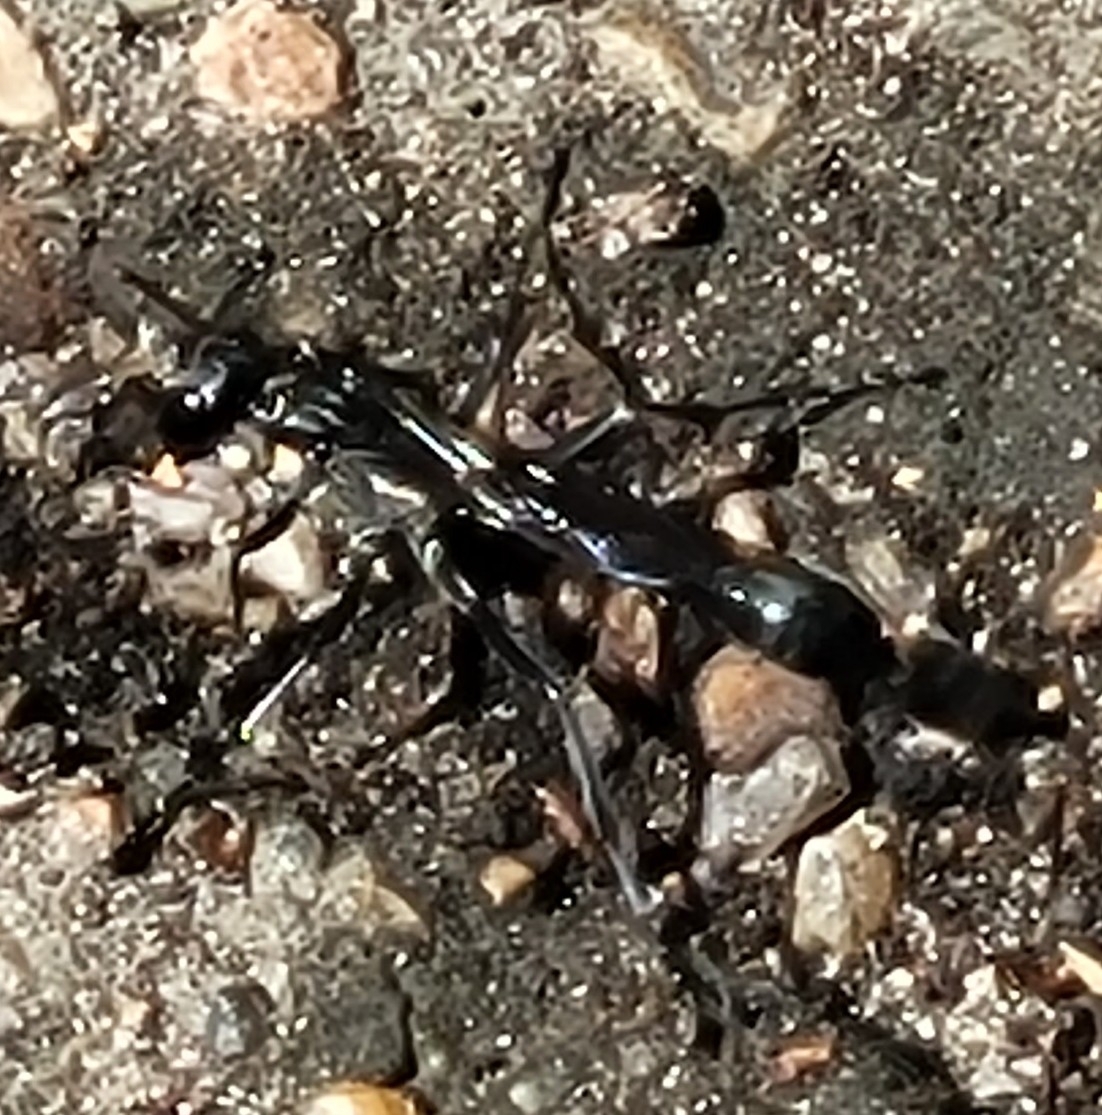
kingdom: Animalia
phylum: Arthropoda
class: Insecta
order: Hymenoptera
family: Sphecidae
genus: Eremnophila
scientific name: Eremnophila aureonotata
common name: Gold-marked thread-waisted wasp
